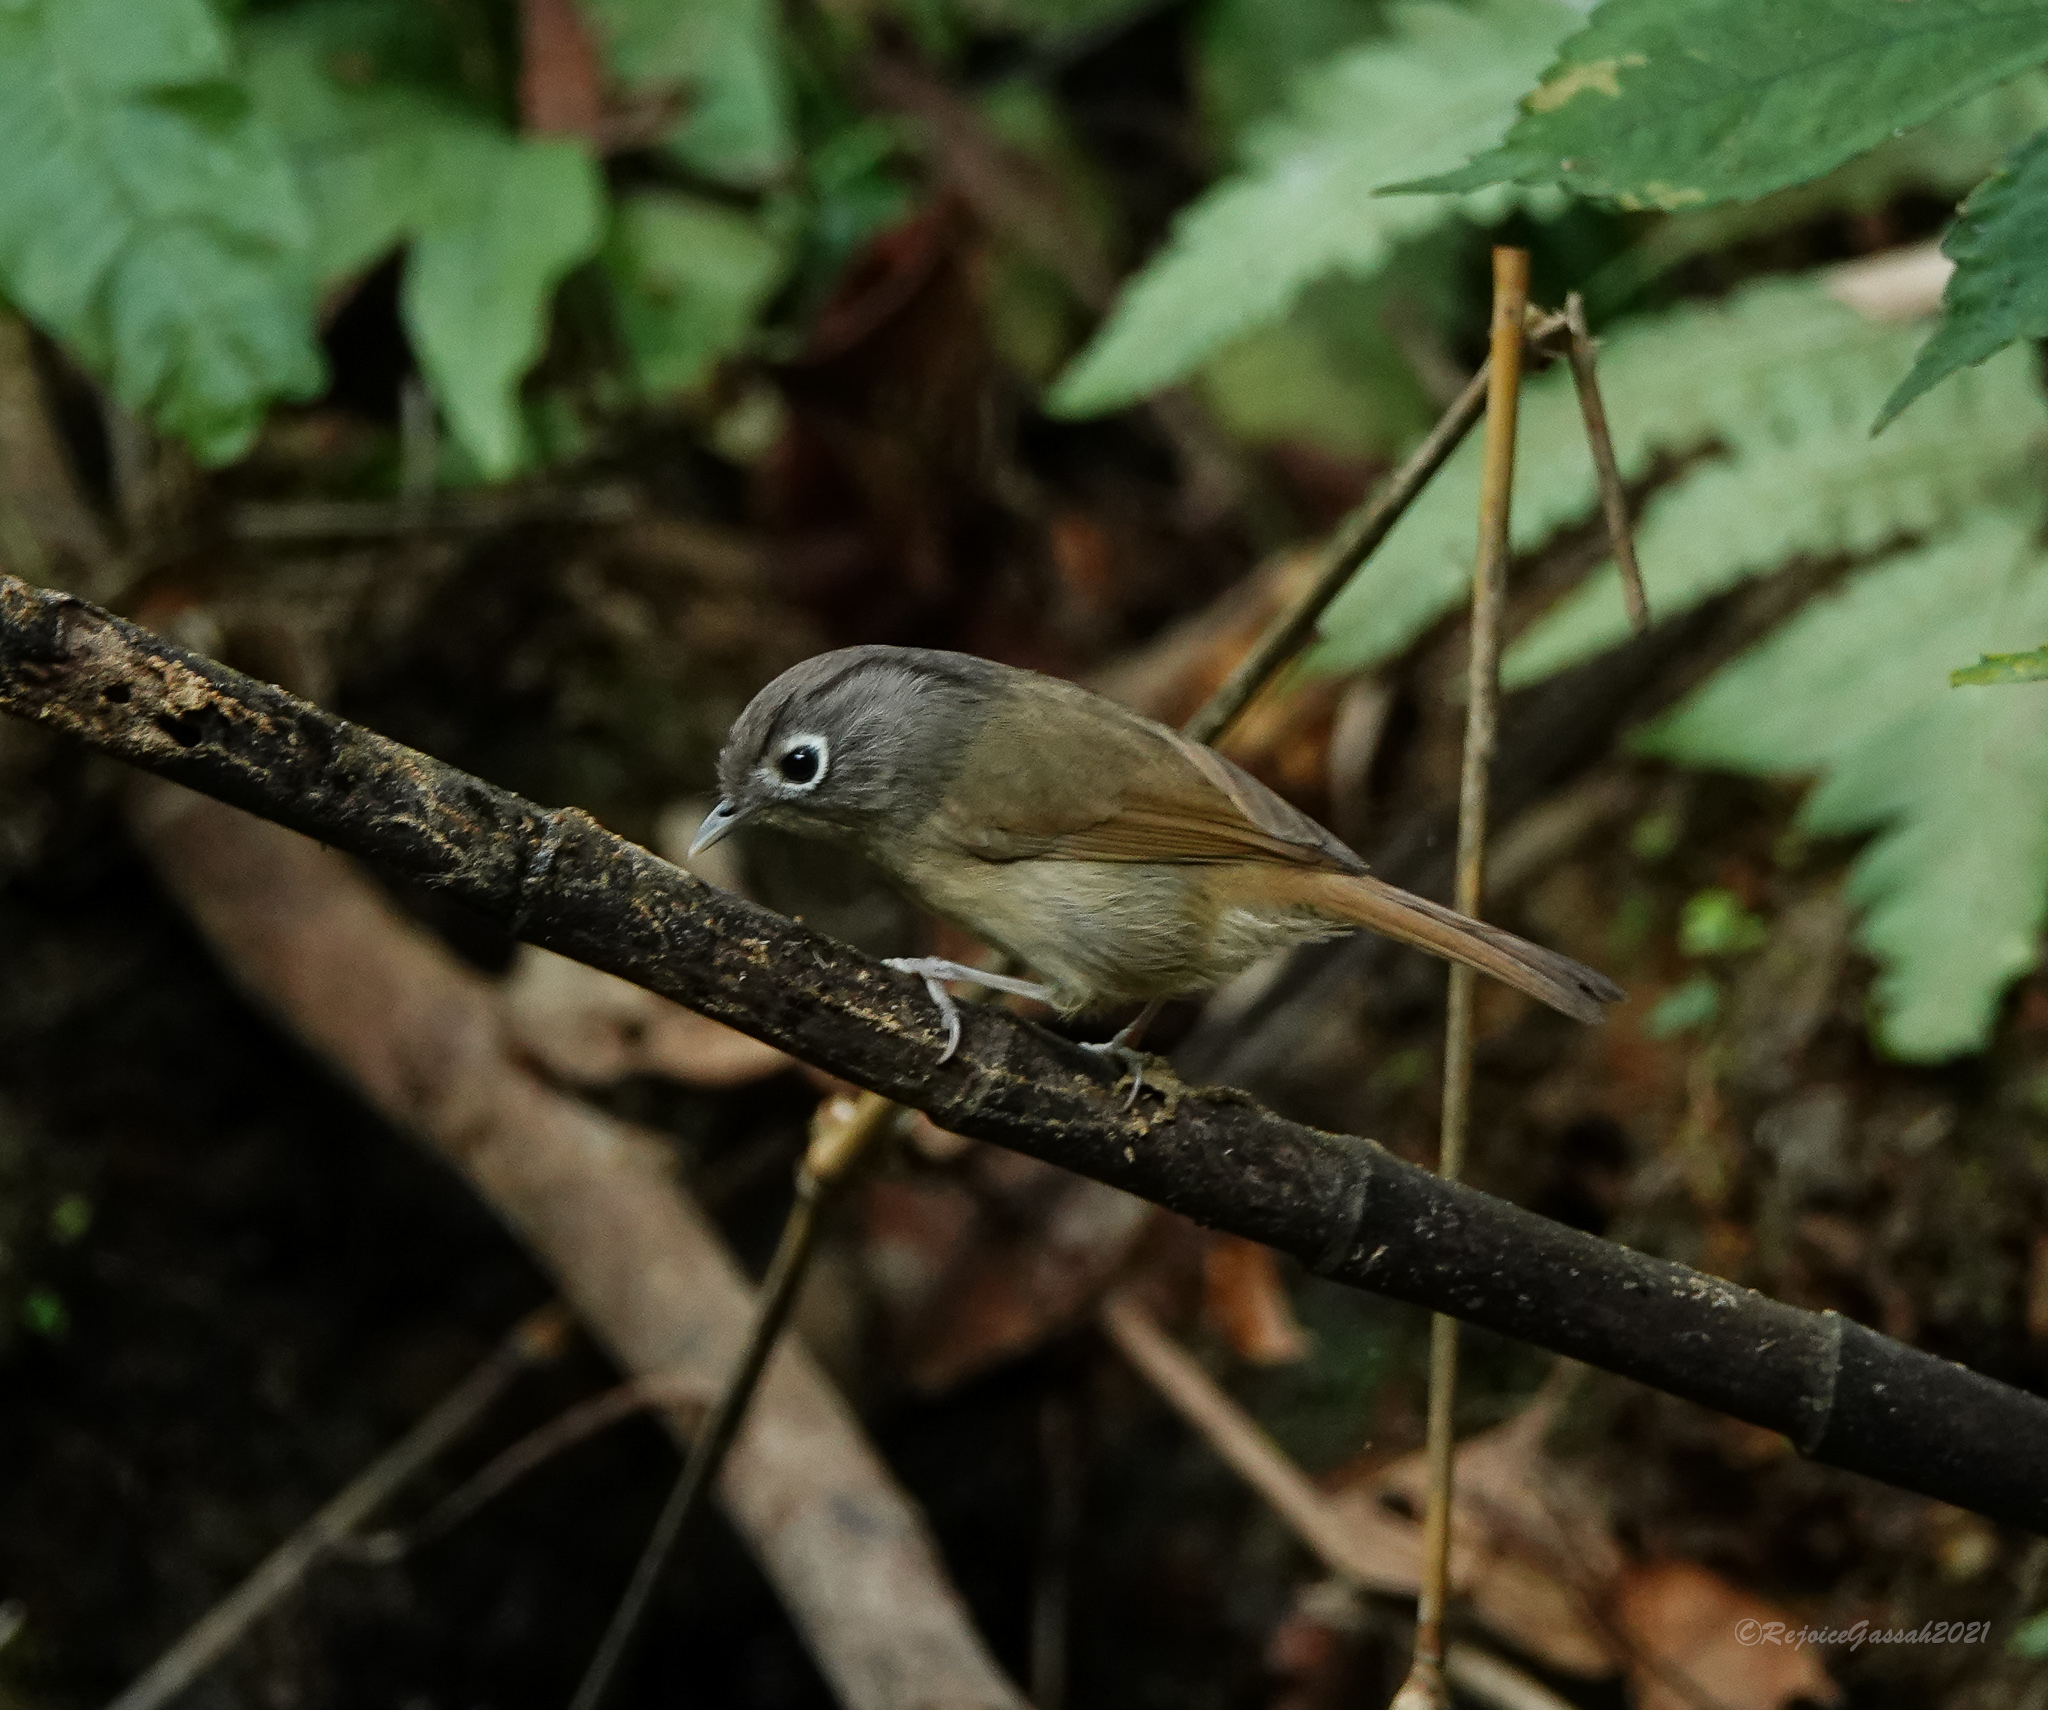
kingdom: Animalia
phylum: Chordata
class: Aves
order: Passeriformes
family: Pellorneidae
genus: Alcippe
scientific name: Alcippe nipalensis
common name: Nepal fulvetta
